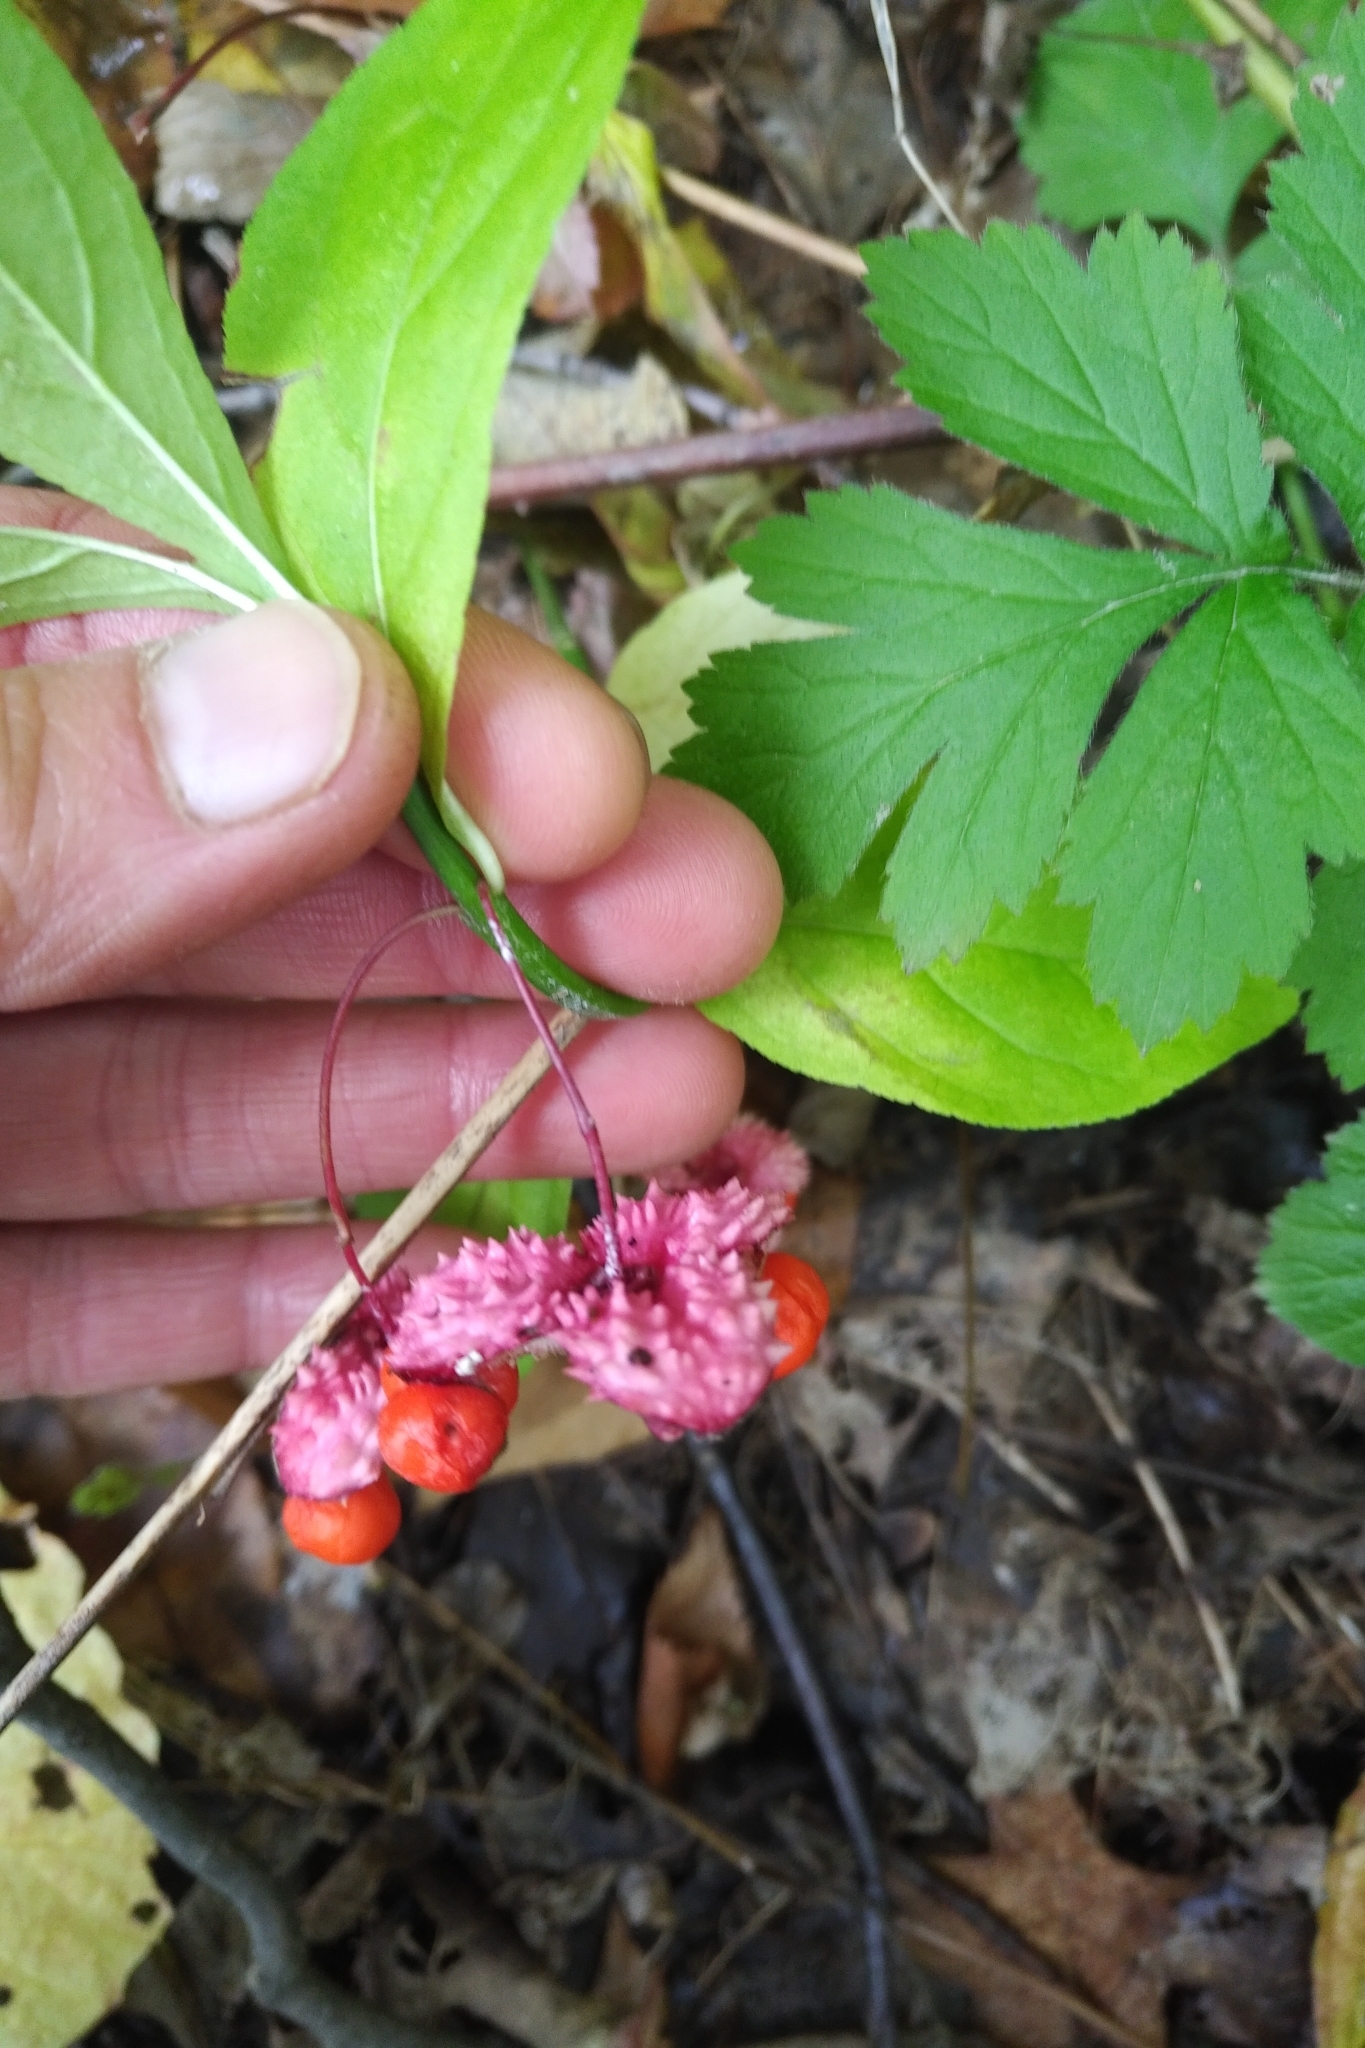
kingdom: Plantae
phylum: Tracheophyta
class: Magnoliopsida
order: Celastrales
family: Celastraceae
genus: Euonymus
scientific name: Euonymus obovatus
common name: Running strawberry-bush
